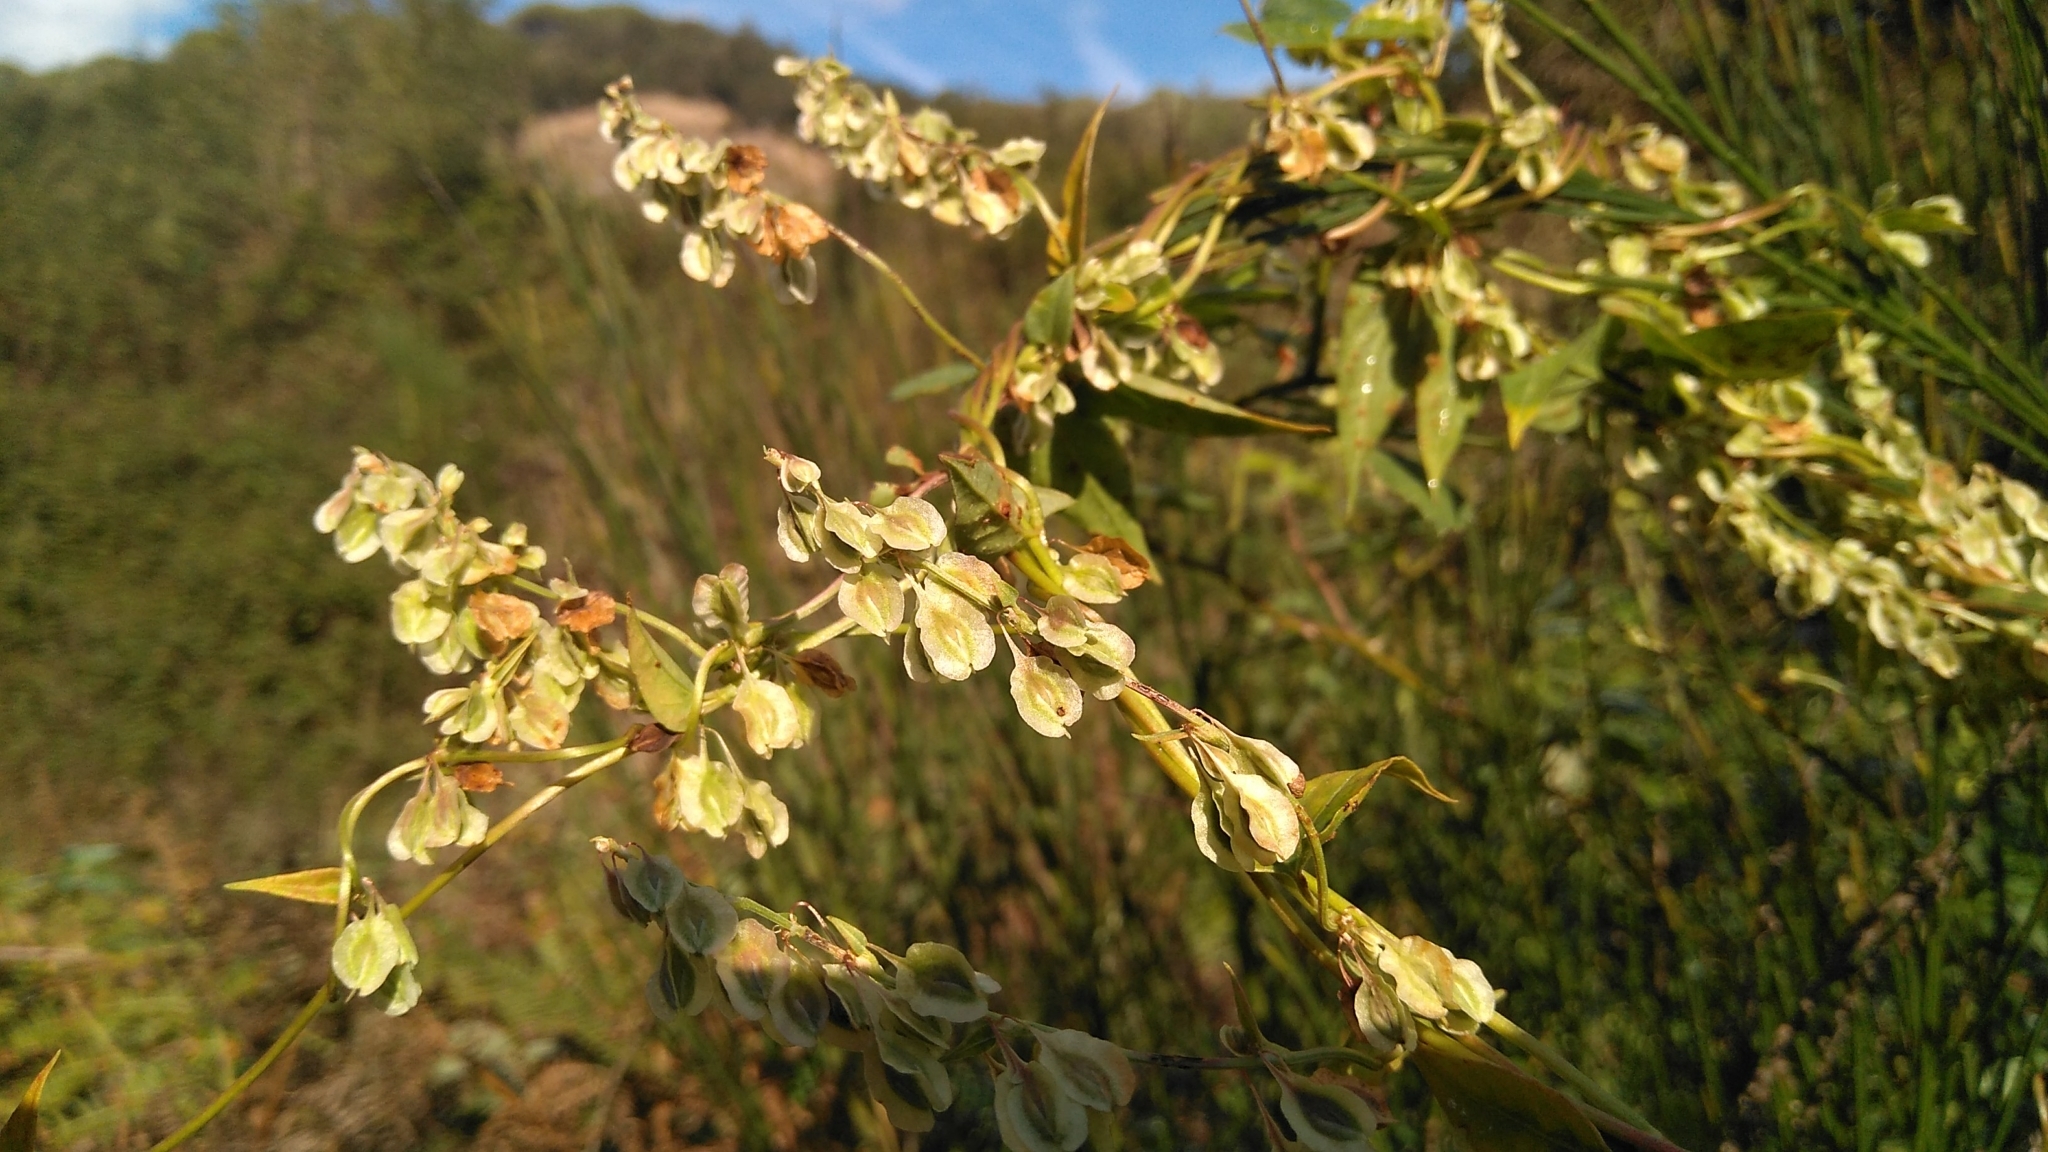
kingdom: Plantae
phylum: Tracheophyta
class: Magnoliopsida
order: Caryophyllales
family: Polygonaceae
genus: Fallopia
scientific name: Fallopia dumetorum
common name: Copse-bindweed
